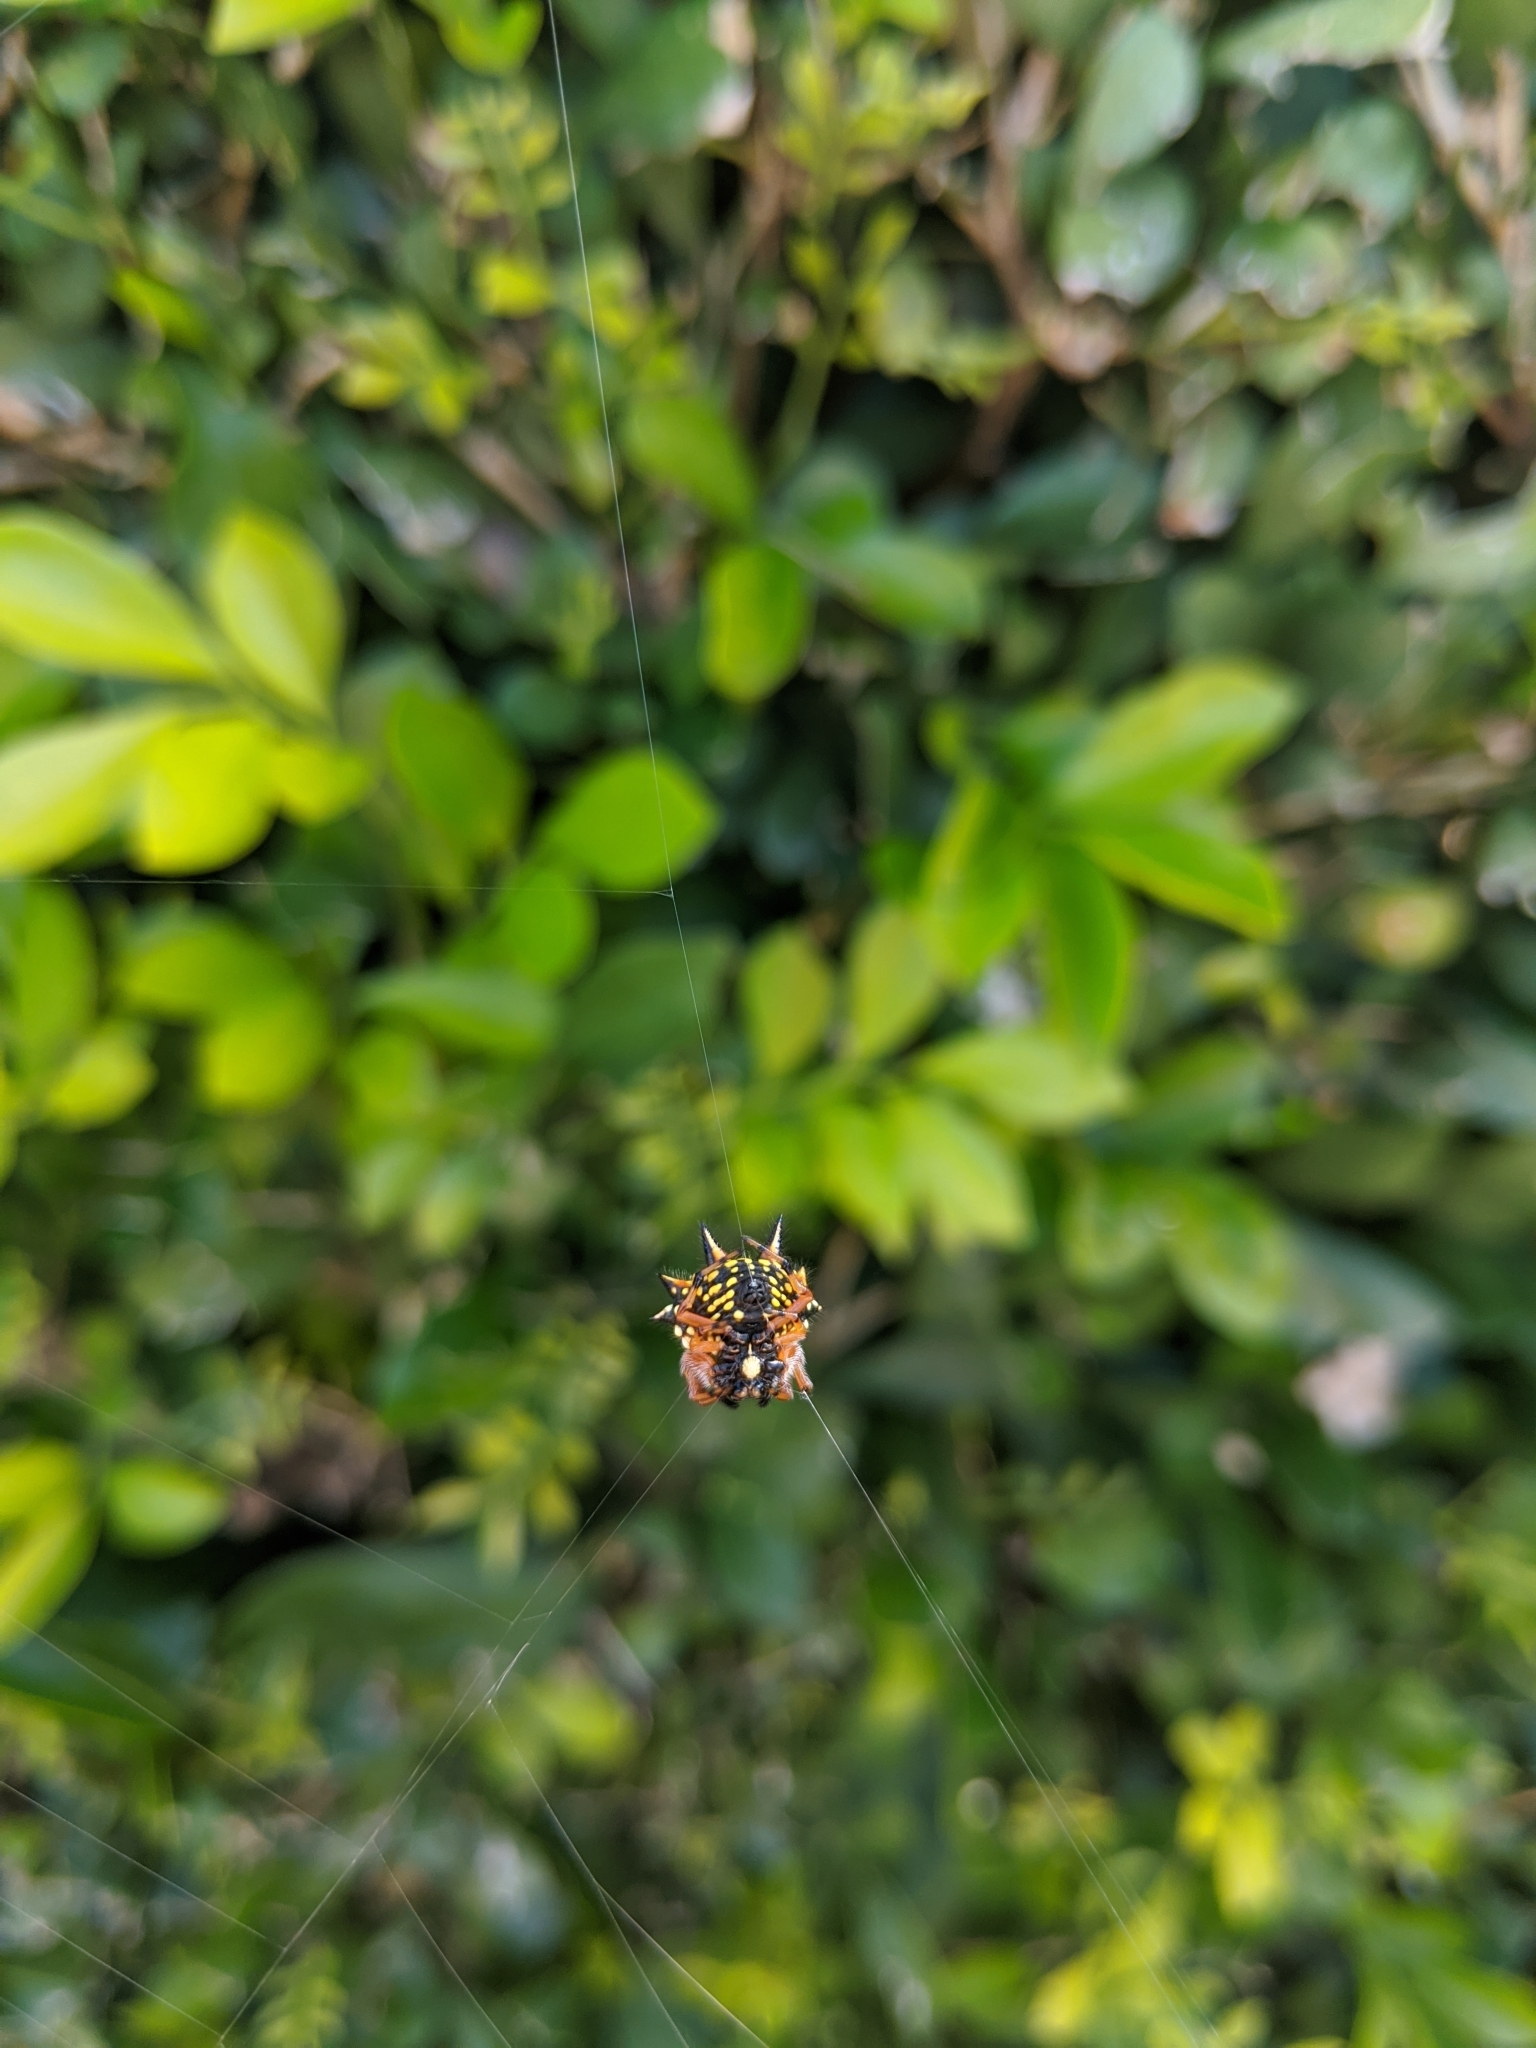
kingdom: Animalia
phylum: Arthropoda
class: Arachnida
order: Araneae
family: Araneidae
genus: Austracantha
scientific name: Austracantha minax
